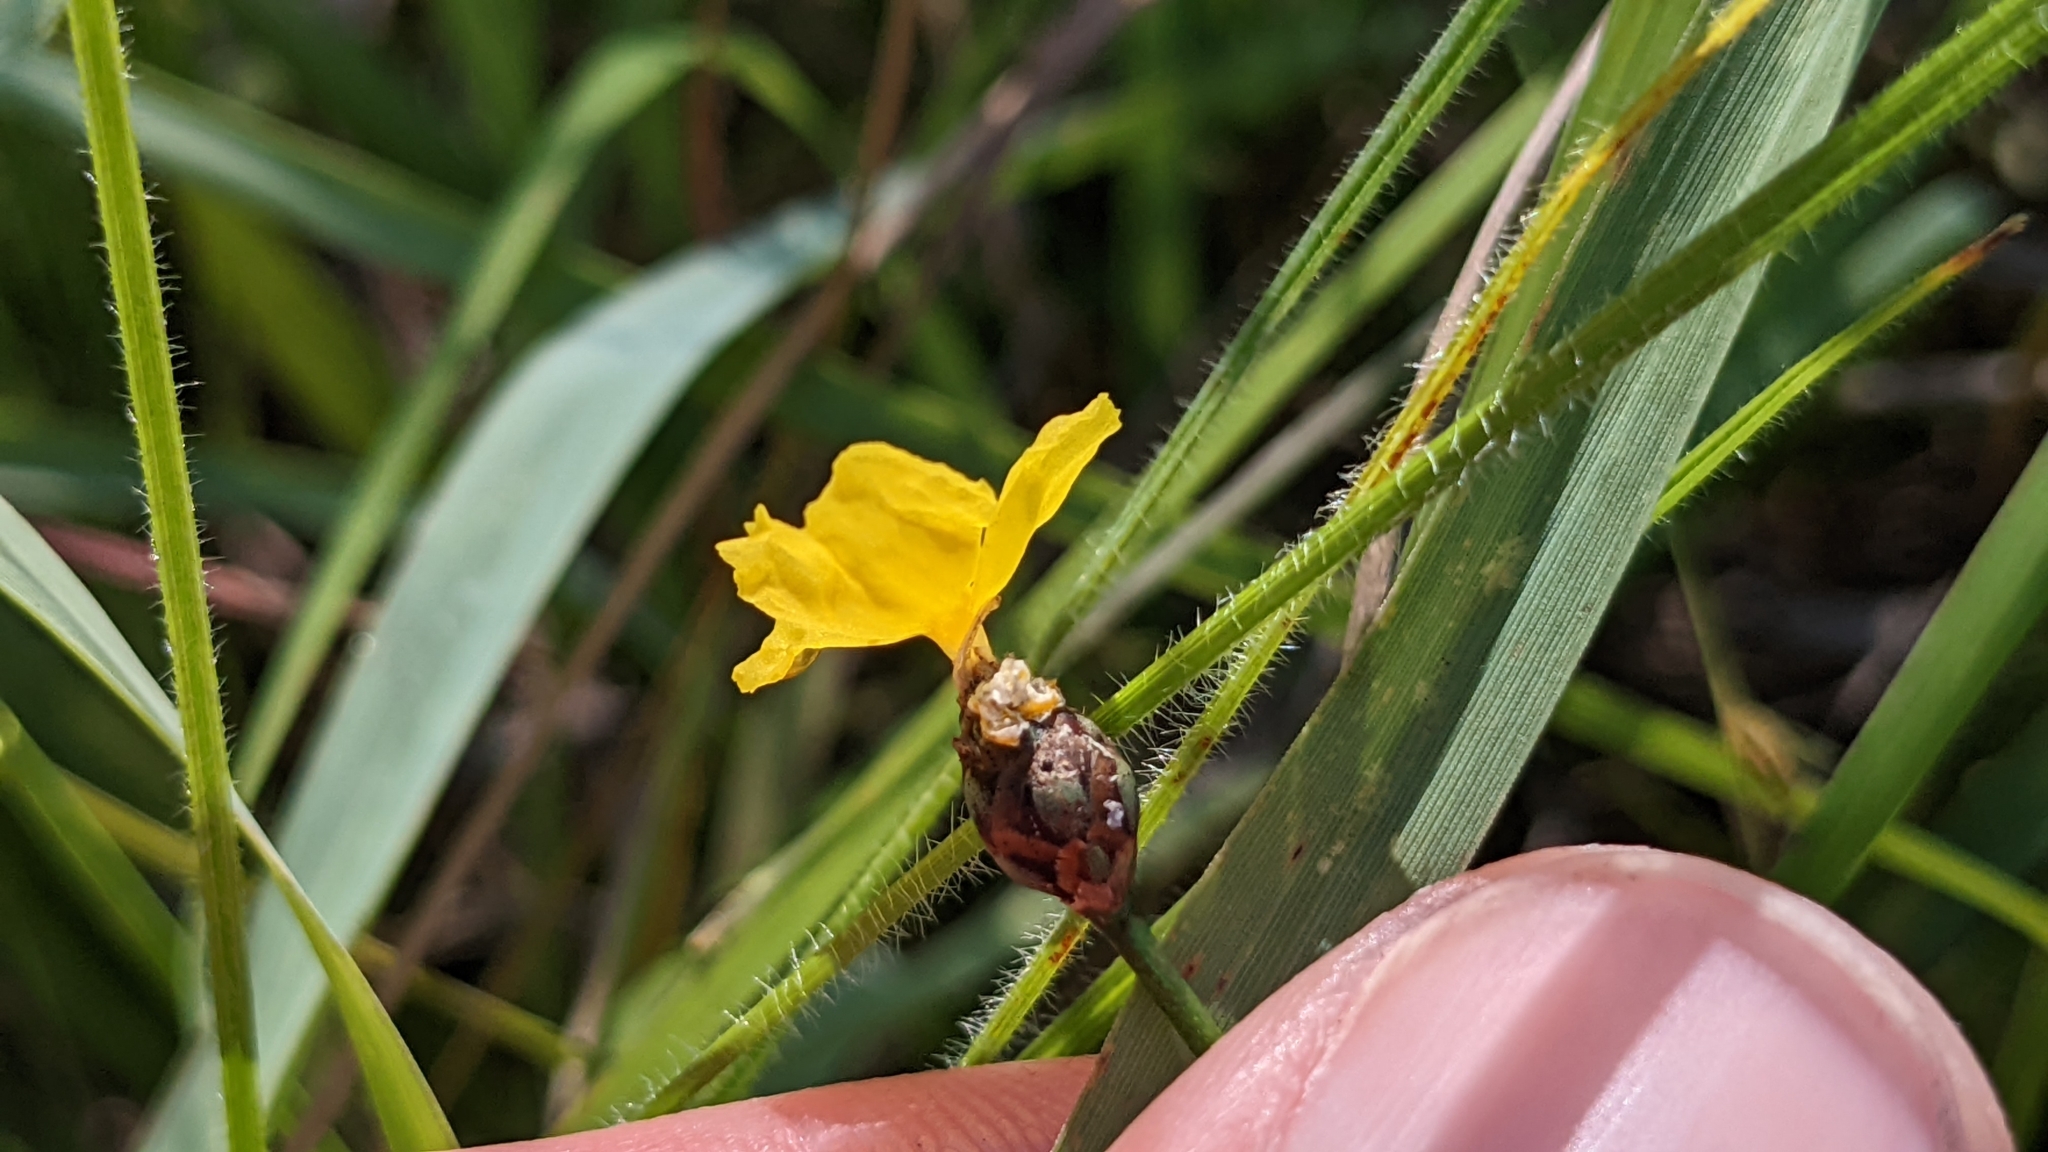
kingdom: Plantae
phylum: Tracheophyta
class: Liliopsida
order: Poales
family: Xyridaceae
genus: Xyris
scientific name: Xyris baldwiniana
